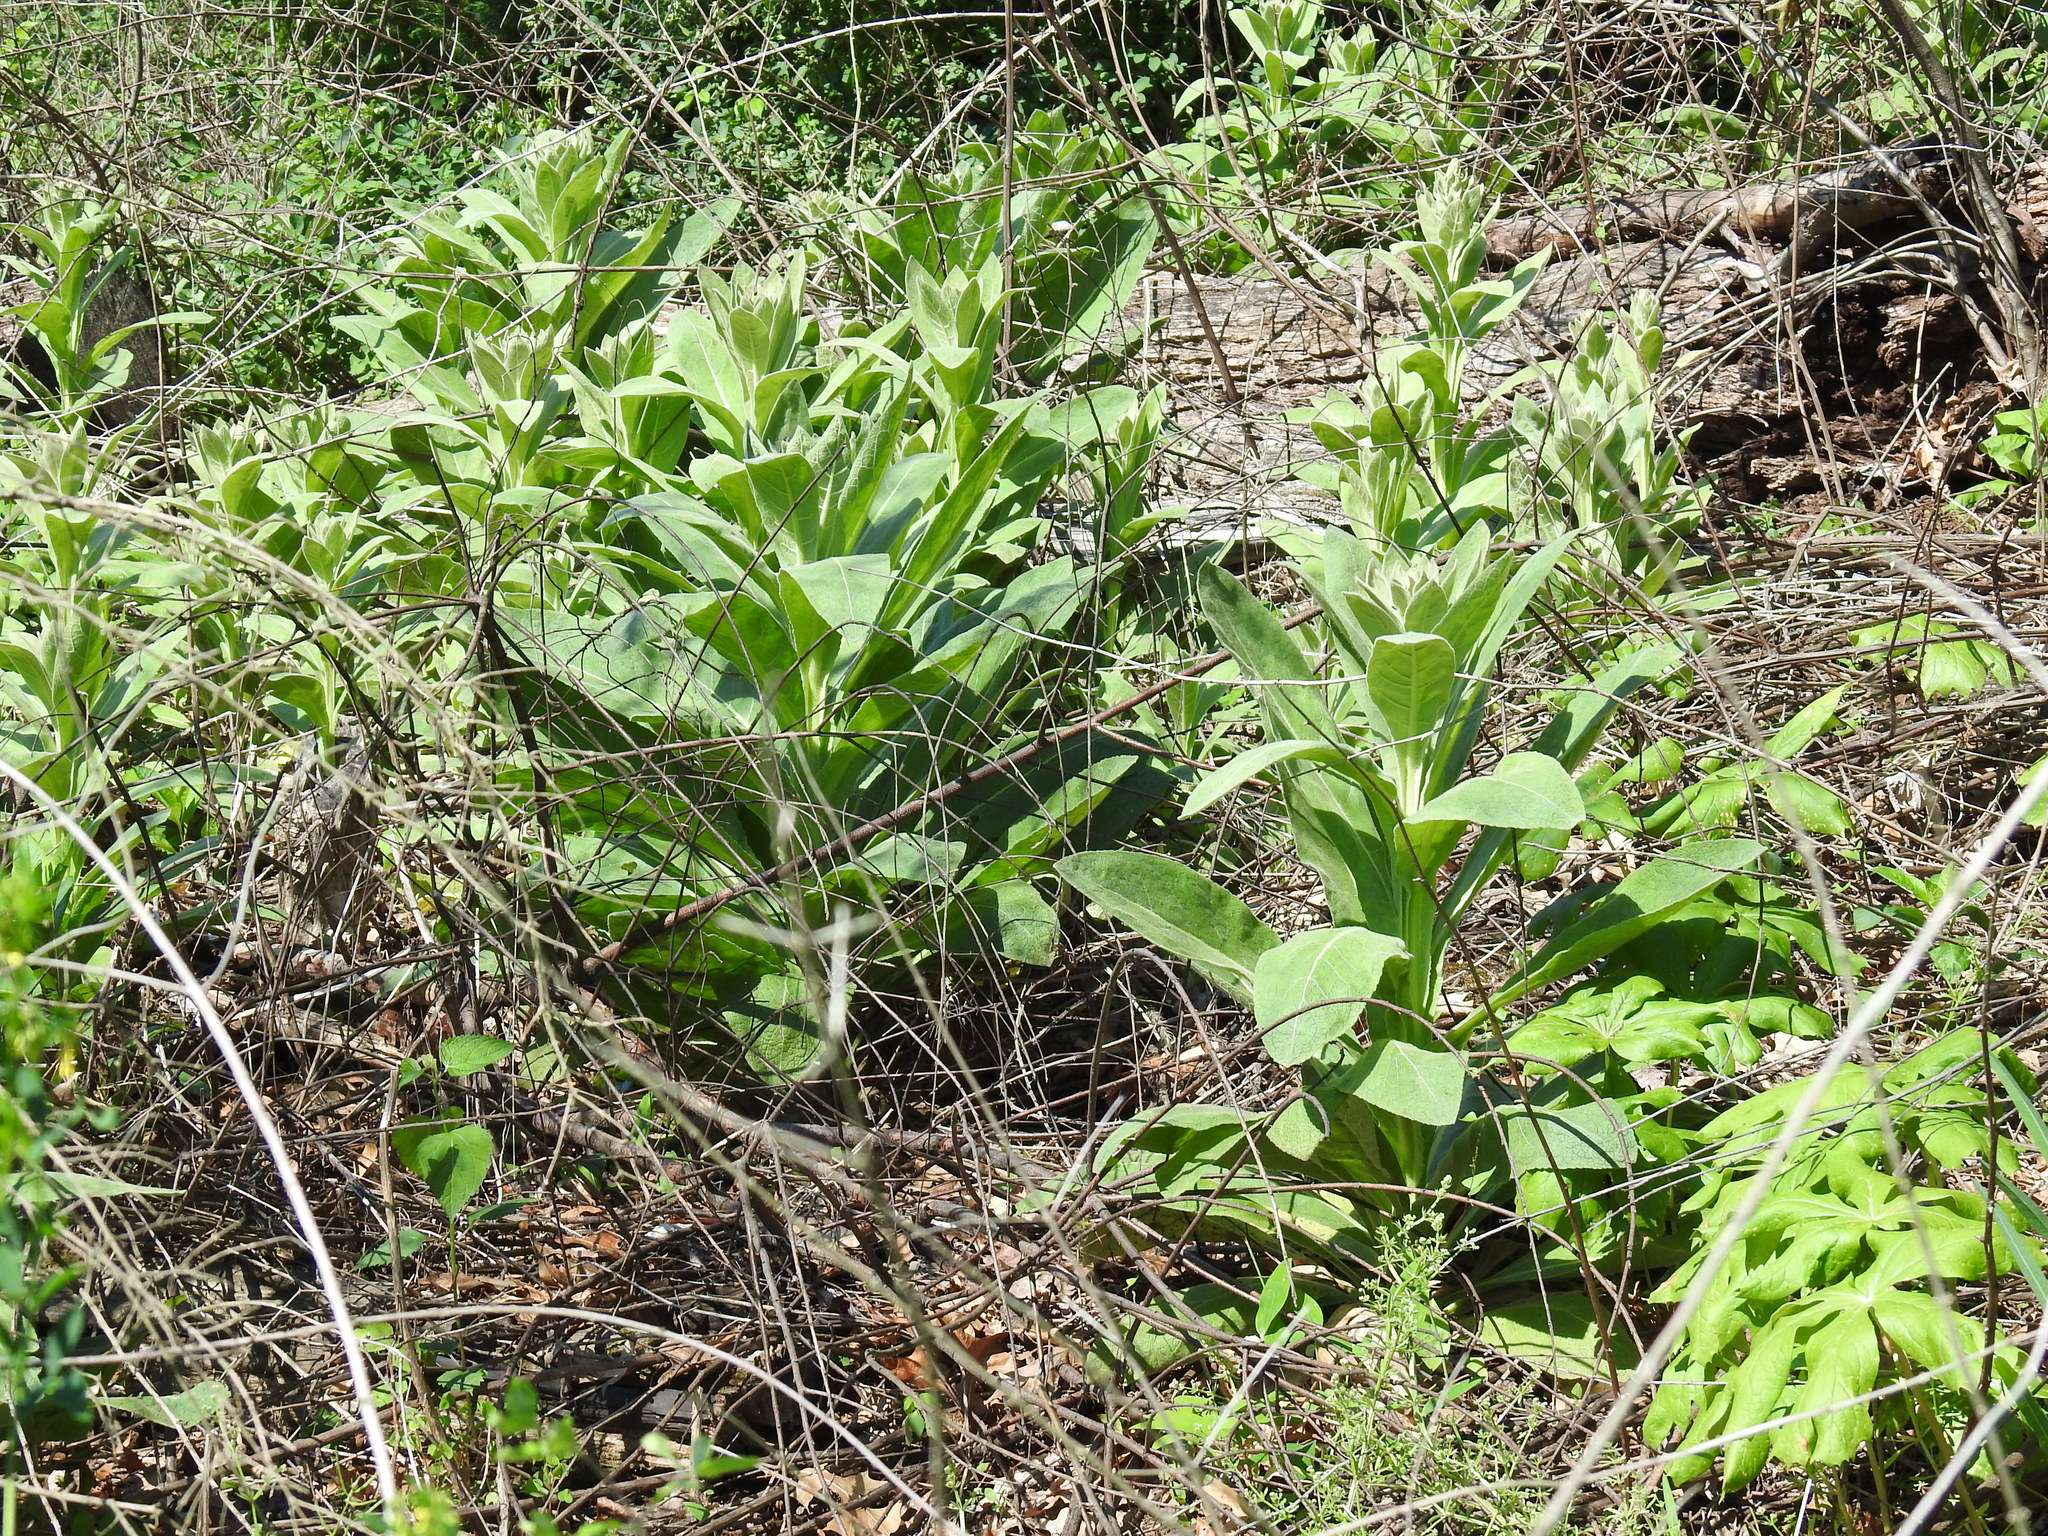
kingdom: Plantae
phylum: Tracheophyta
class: Magnoliopsida
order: Lamiales
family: Scrophulariaceae
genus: Verbascum
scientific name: Verbascum thapsus
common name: Common mullein
